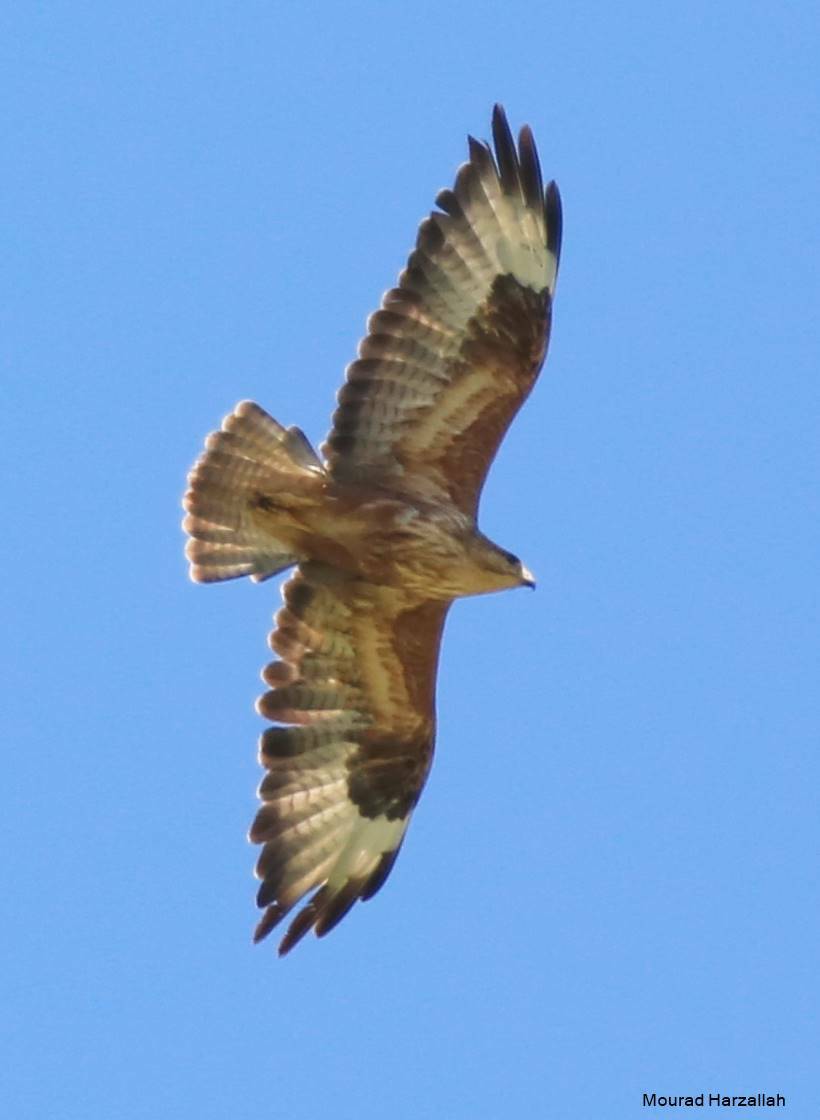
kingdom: Animalia
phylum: Chordata
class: Aves
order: Accipitriformes
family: Accipitridae
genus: Buteo
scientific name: Buteo rufinus
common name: Long-legged buzzard
